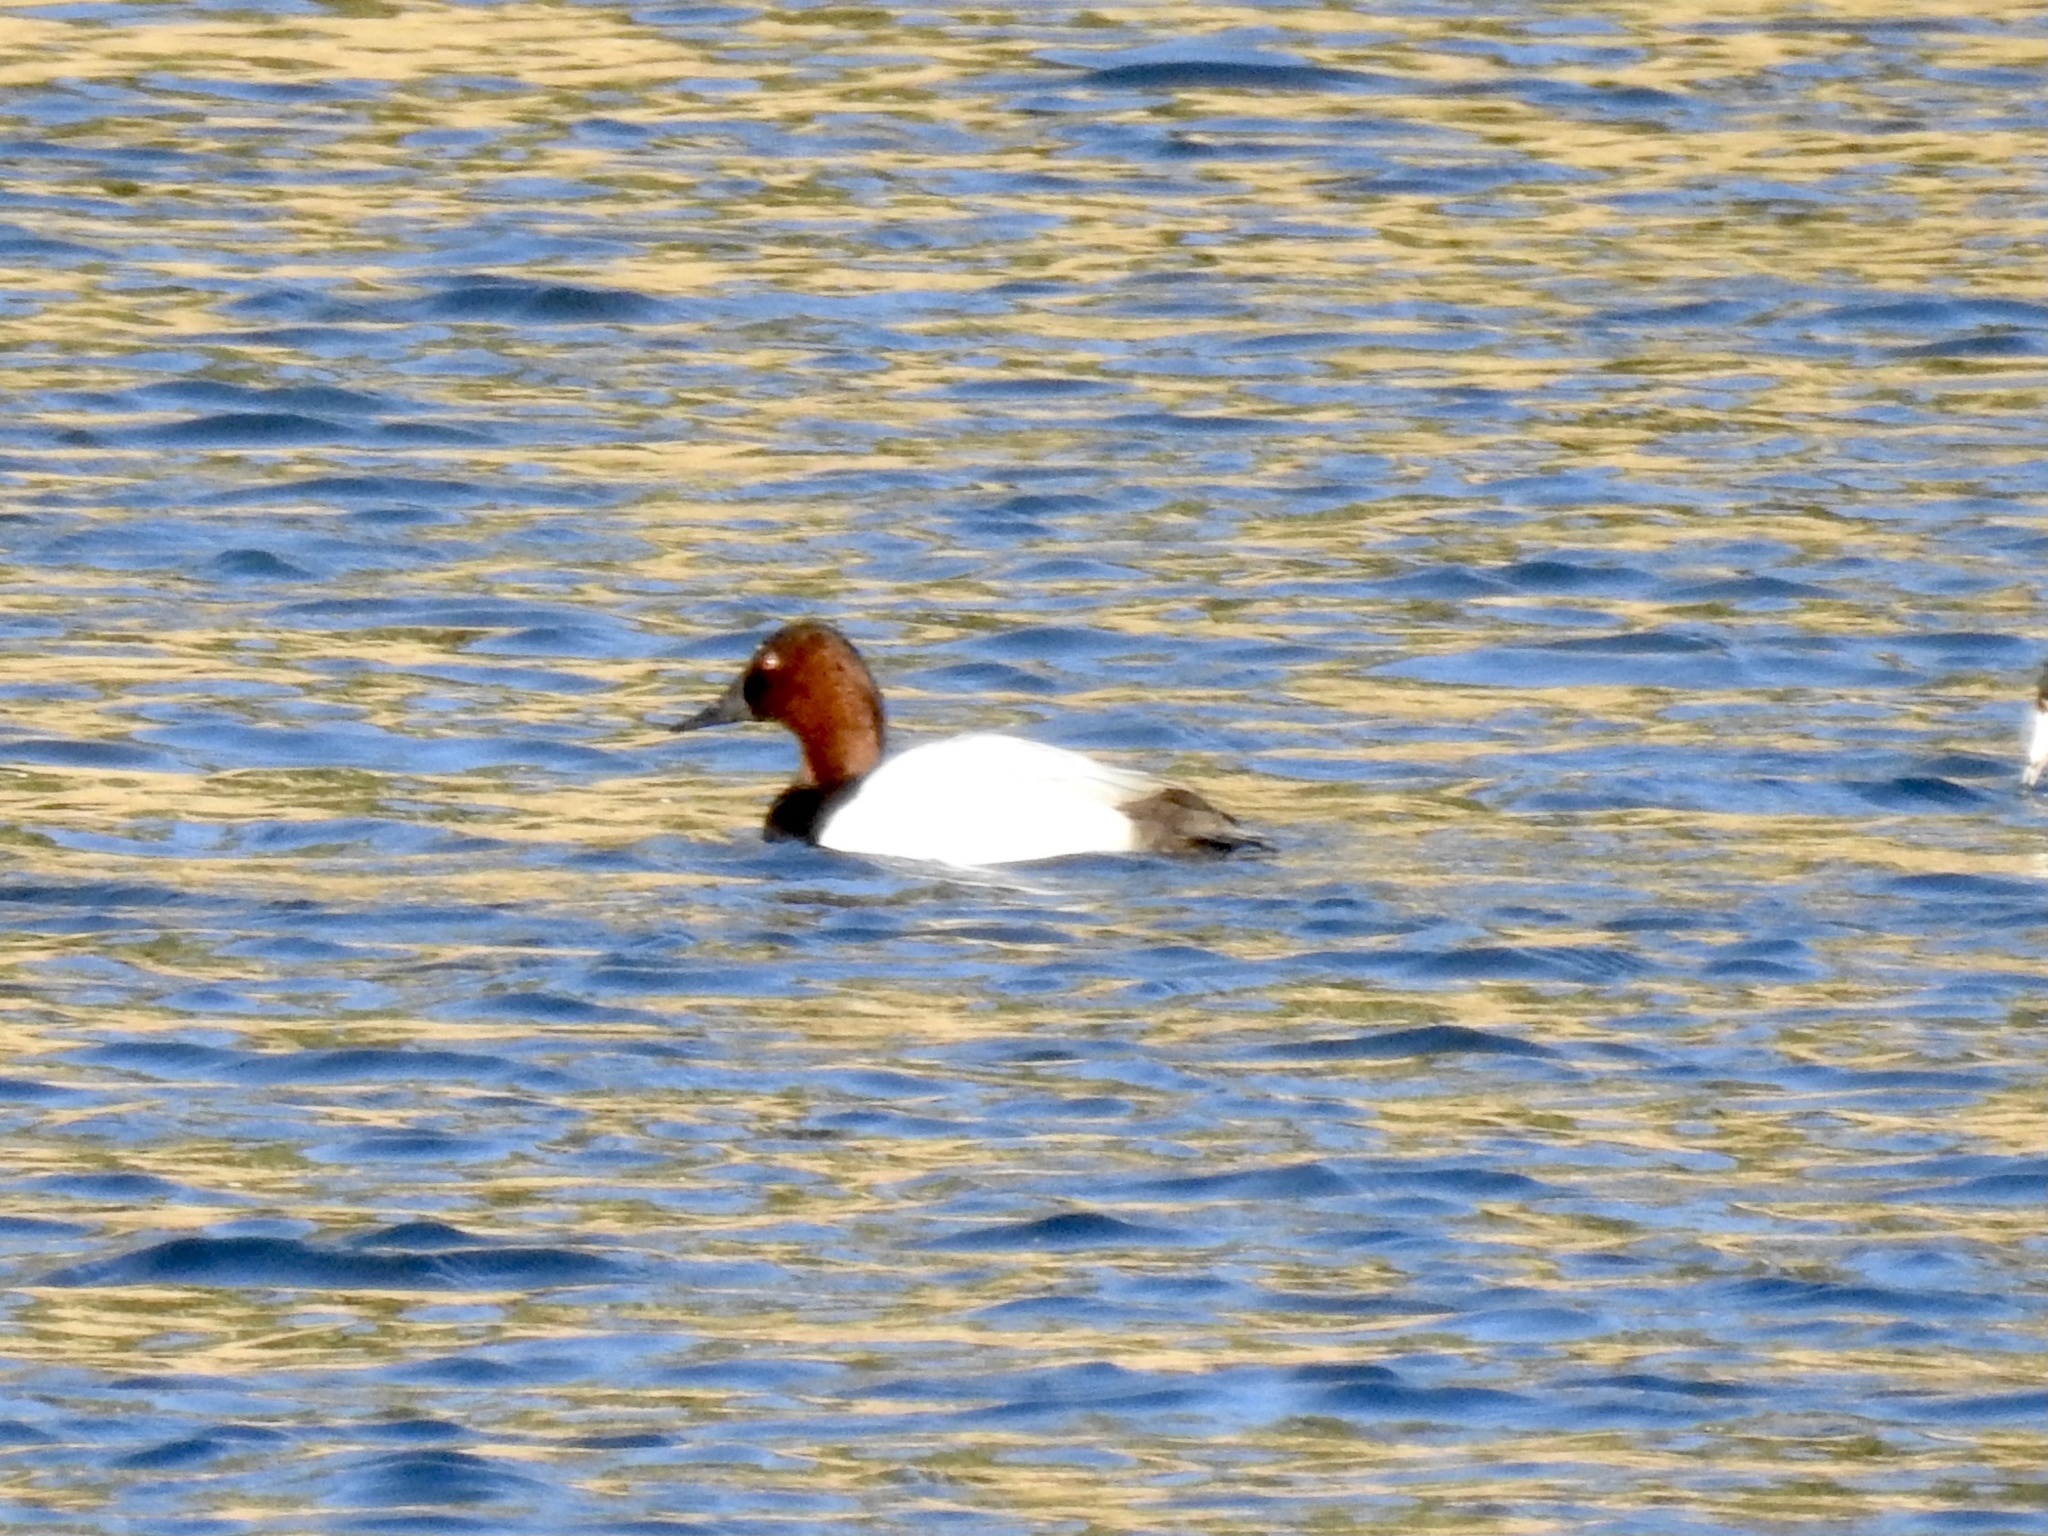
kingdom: Animalia
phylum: Chordata
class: Aves
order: Anseriformes
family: Anatidae
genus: Aythya
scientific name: Aythya valisineria
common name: Canvasback
